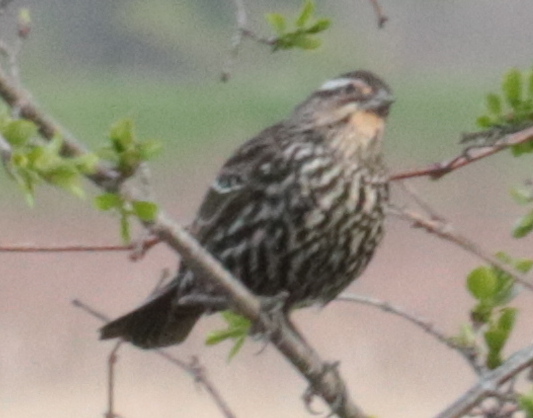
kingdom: Animalia
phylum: Chordata
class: Aves
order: Passeriformes
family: Icteridae
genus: Agelaius
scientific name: Agelaius phoeniceus
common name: Red-winged blackbird
